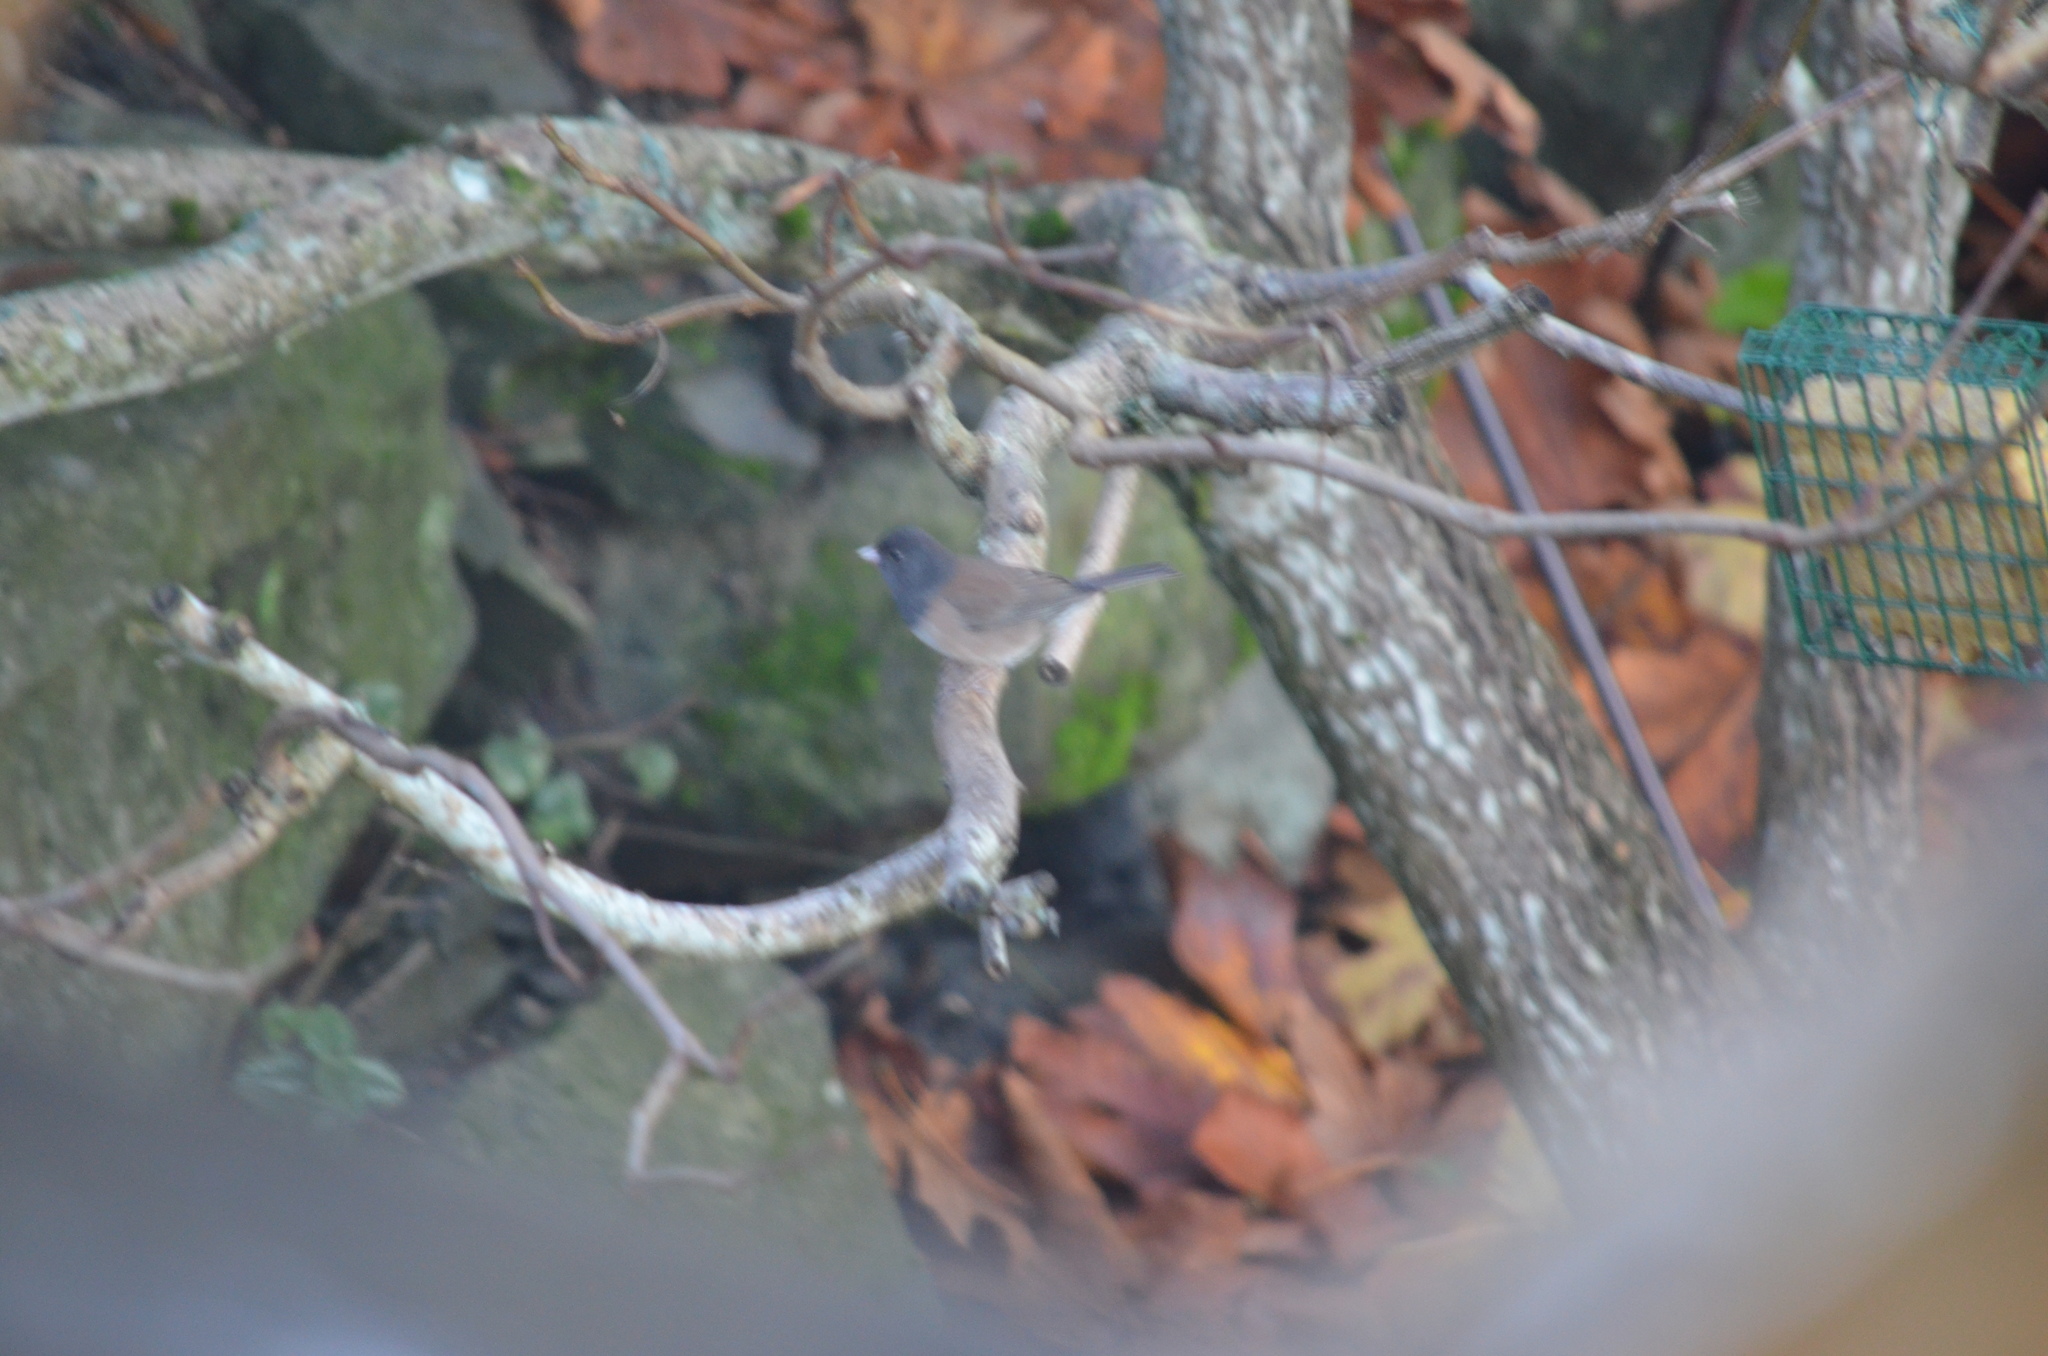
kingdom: Animalia
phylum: Chordata
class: Aves
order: Passeriformes
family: Passerellidae
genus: Junco
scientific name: Junco hyemalis
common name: Dark-eyed junco
